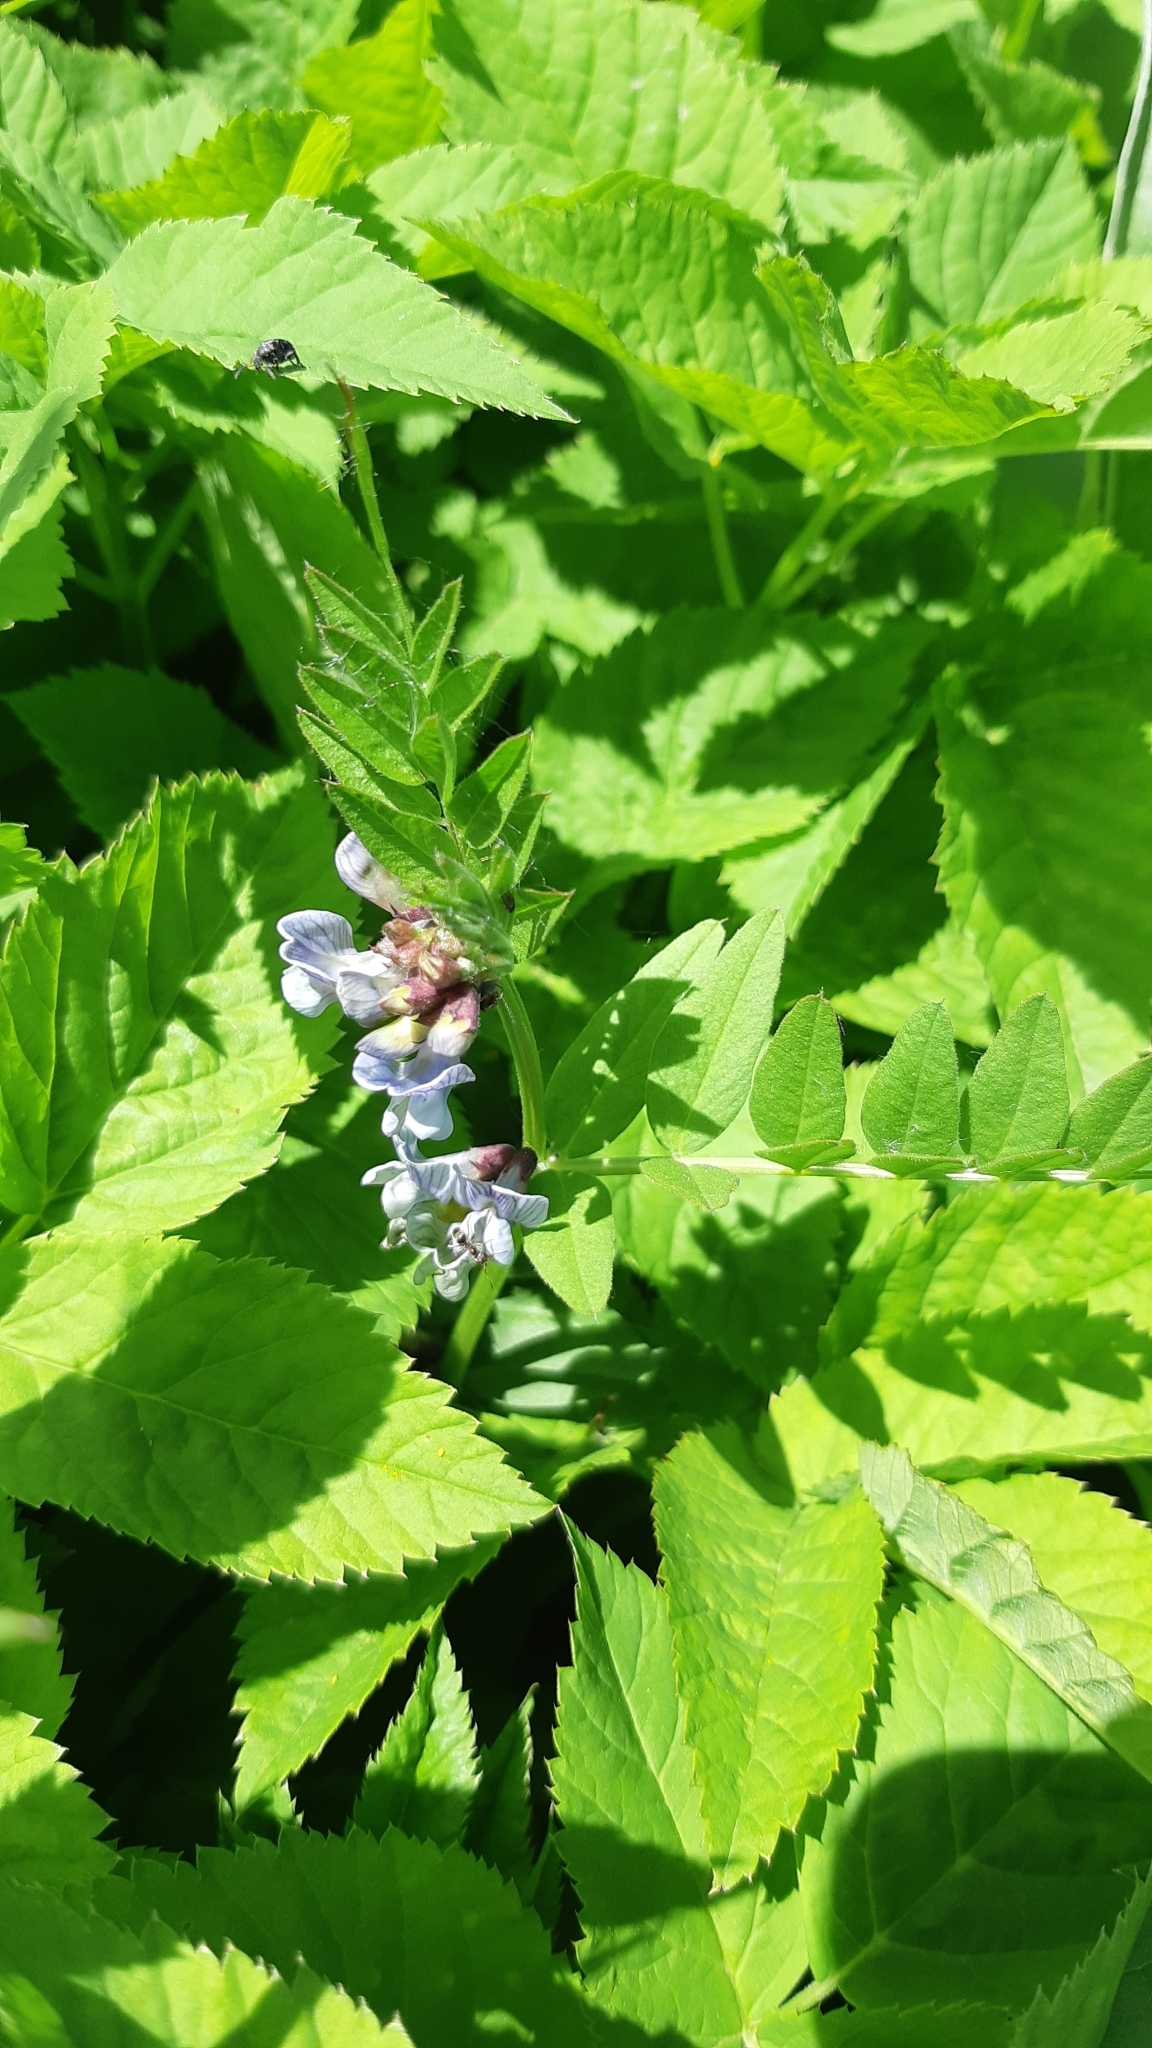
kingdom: Plantae
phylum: Tracheophyta
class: Magnoliopsida
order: Fabales
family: Fabaceae
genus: Vicia
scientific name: Vicia sepium
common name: Bush vetch
